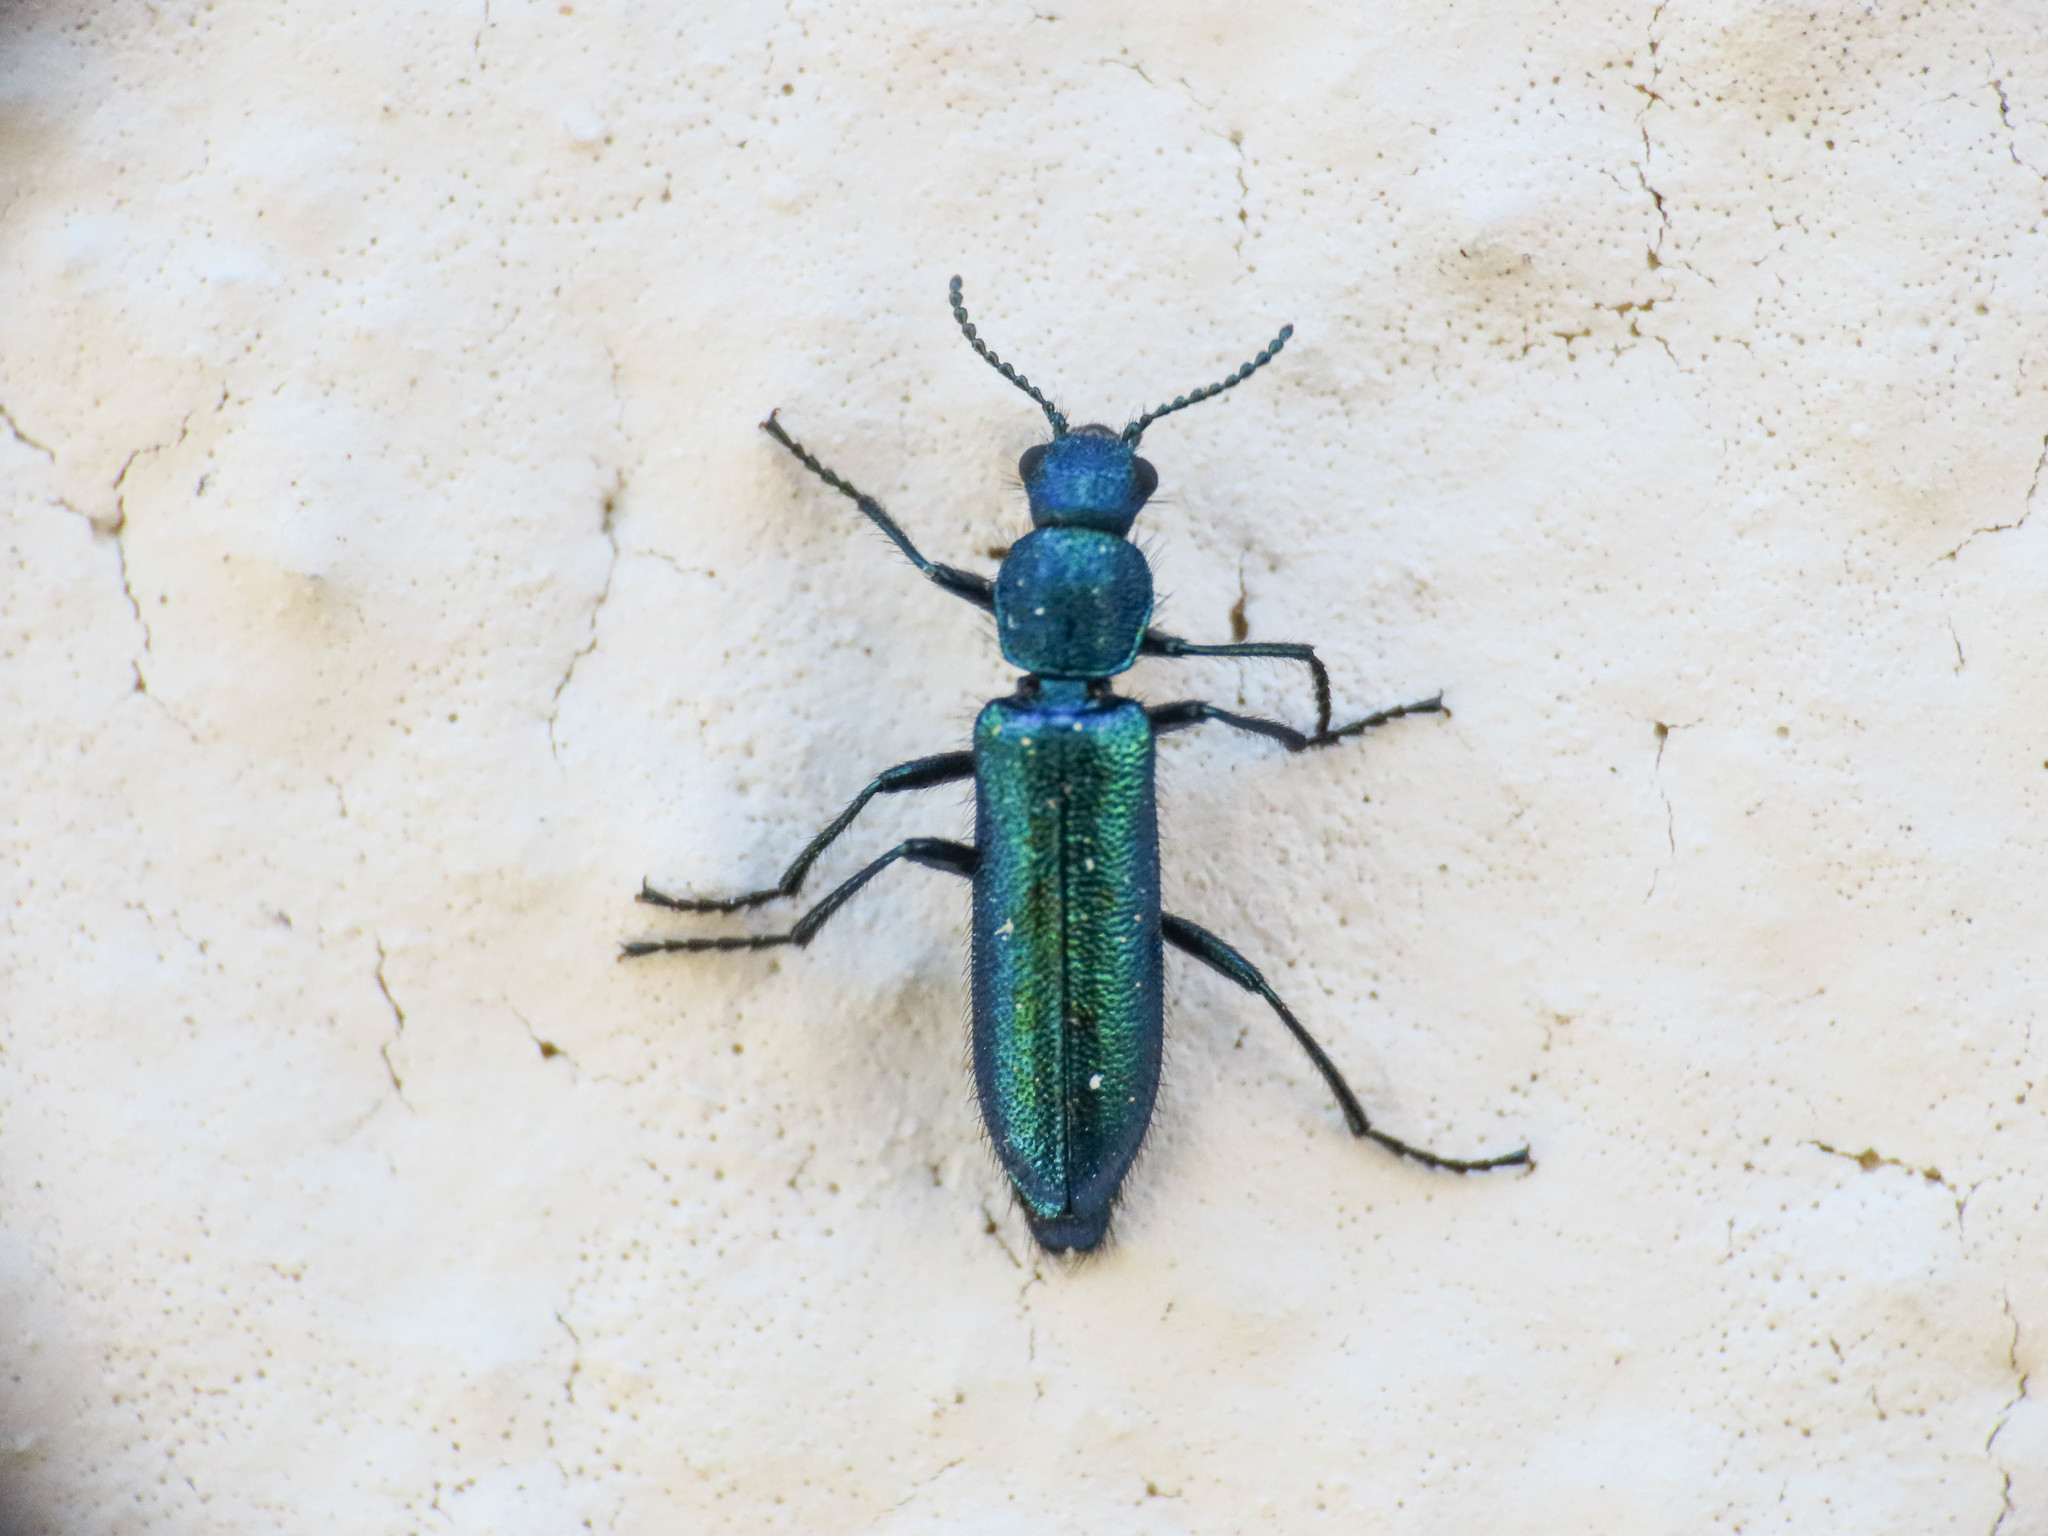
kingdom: Animalia
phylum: Arthropoda
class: Insecta
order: Coleoptera
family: Dasytidae
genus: Psilothrix
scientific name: Psilothrix viridicoerulea
